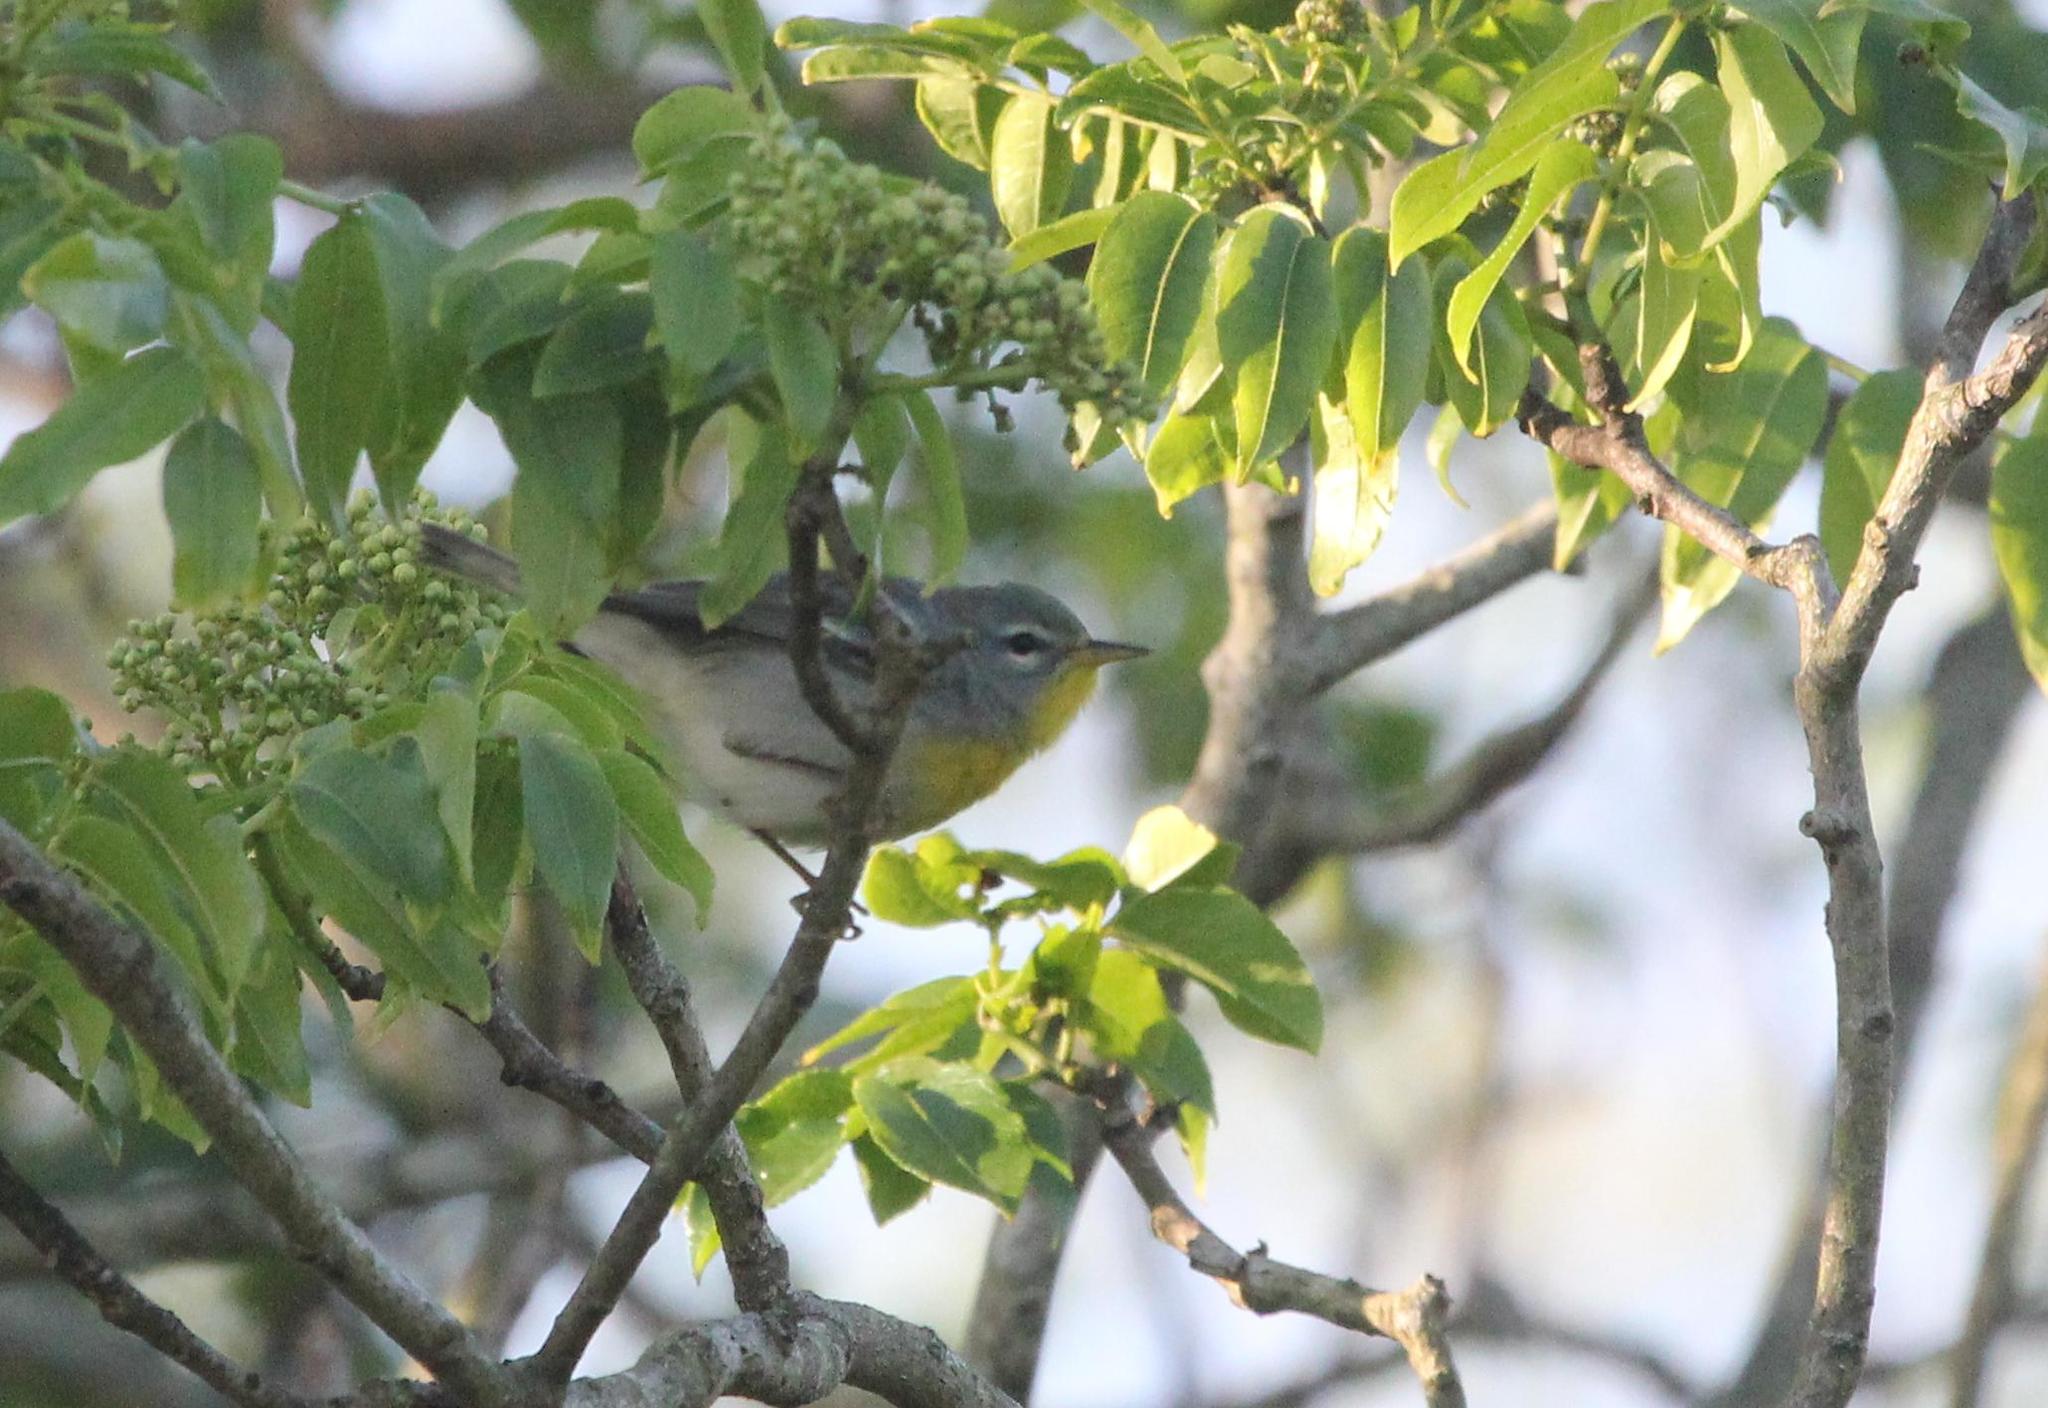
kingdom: Animalia
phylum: Chordata
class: Aves
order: Passeriformes
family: Parulidae
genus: Setophaga
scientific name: Setophaga americana
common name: Northern parula
